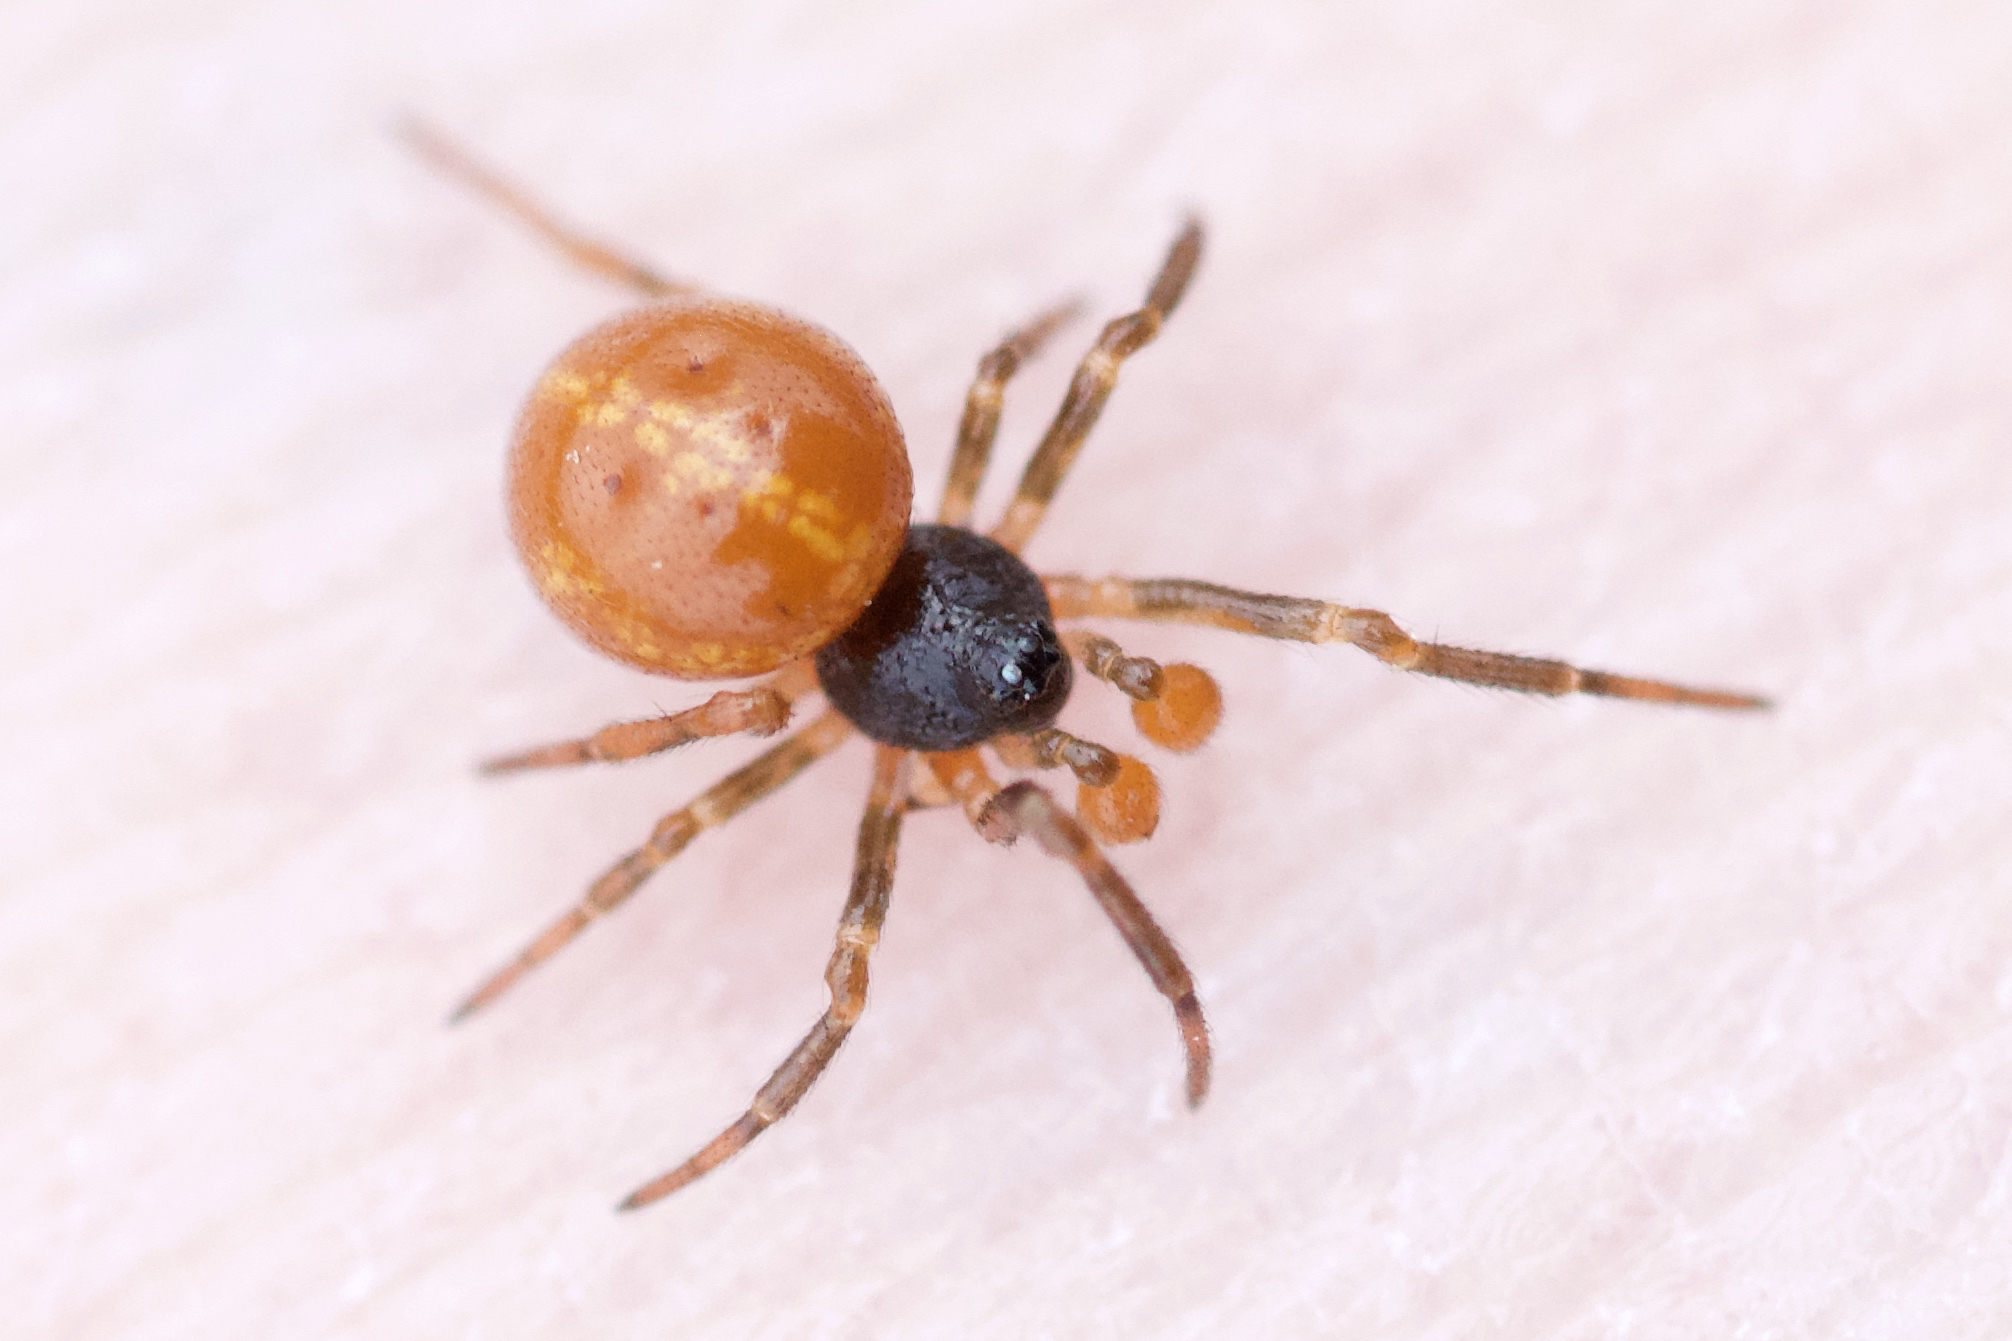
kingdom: Animalia
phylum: Arthropoda
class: Arachnida
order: Araneae
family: Theridiidae
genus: Crustulina
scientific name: Crustulina sticta
